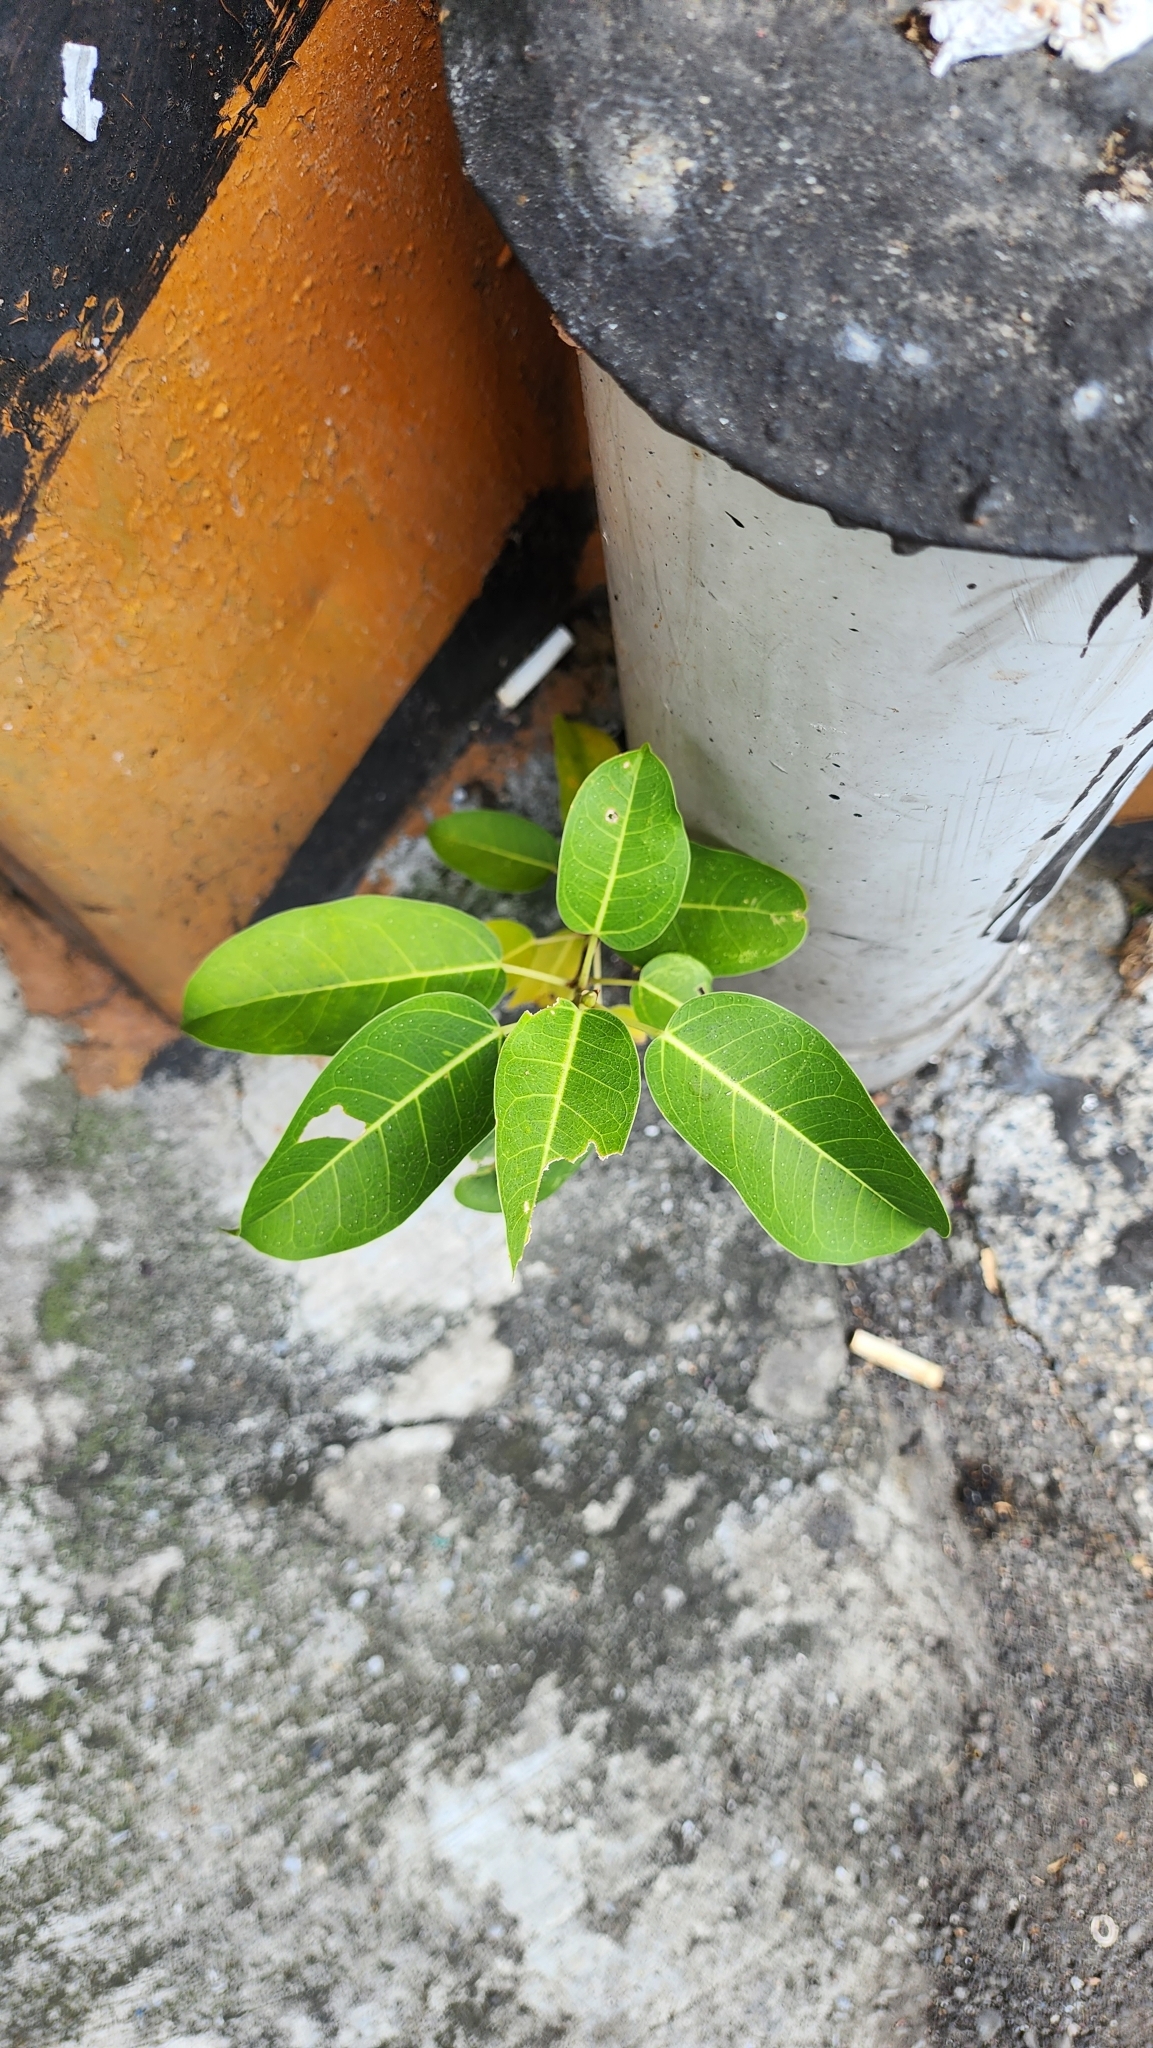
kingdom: Plantae
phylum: Tracheophyta
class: Magnoliopsida
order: Rosales
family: Moraceae
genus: Ficus
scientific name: Ficus subpisocarpa
